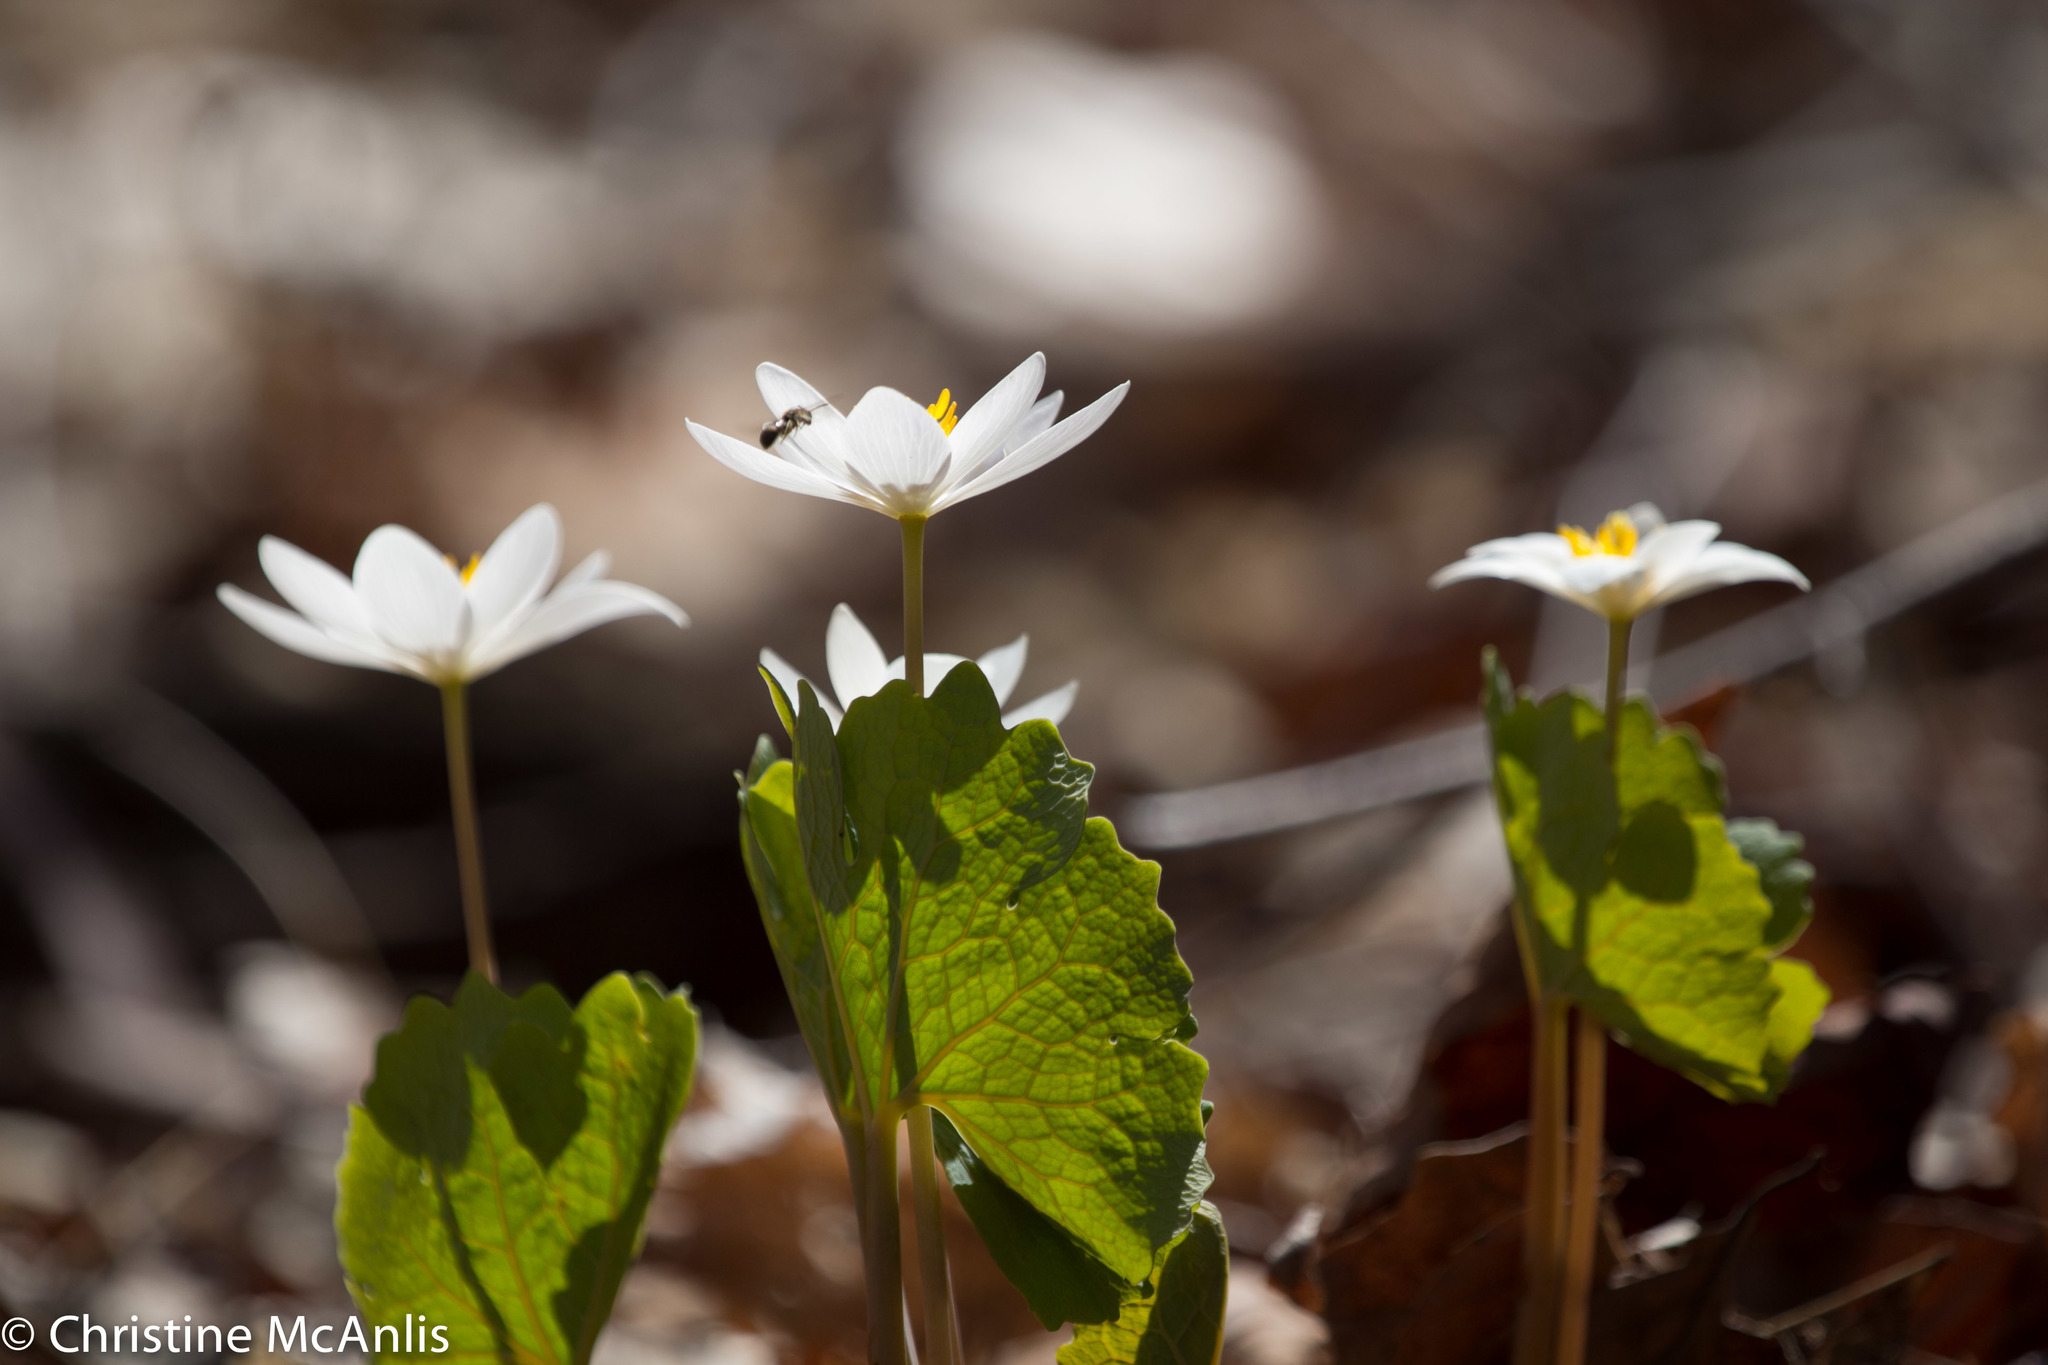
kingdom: Plantae
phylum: Tracheophyta
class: Magnoliopsida
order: Ranunculales
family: Papaveraceae
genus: Sanguinaria
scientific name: Sanguinaria canadensis
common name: Bloodroot
